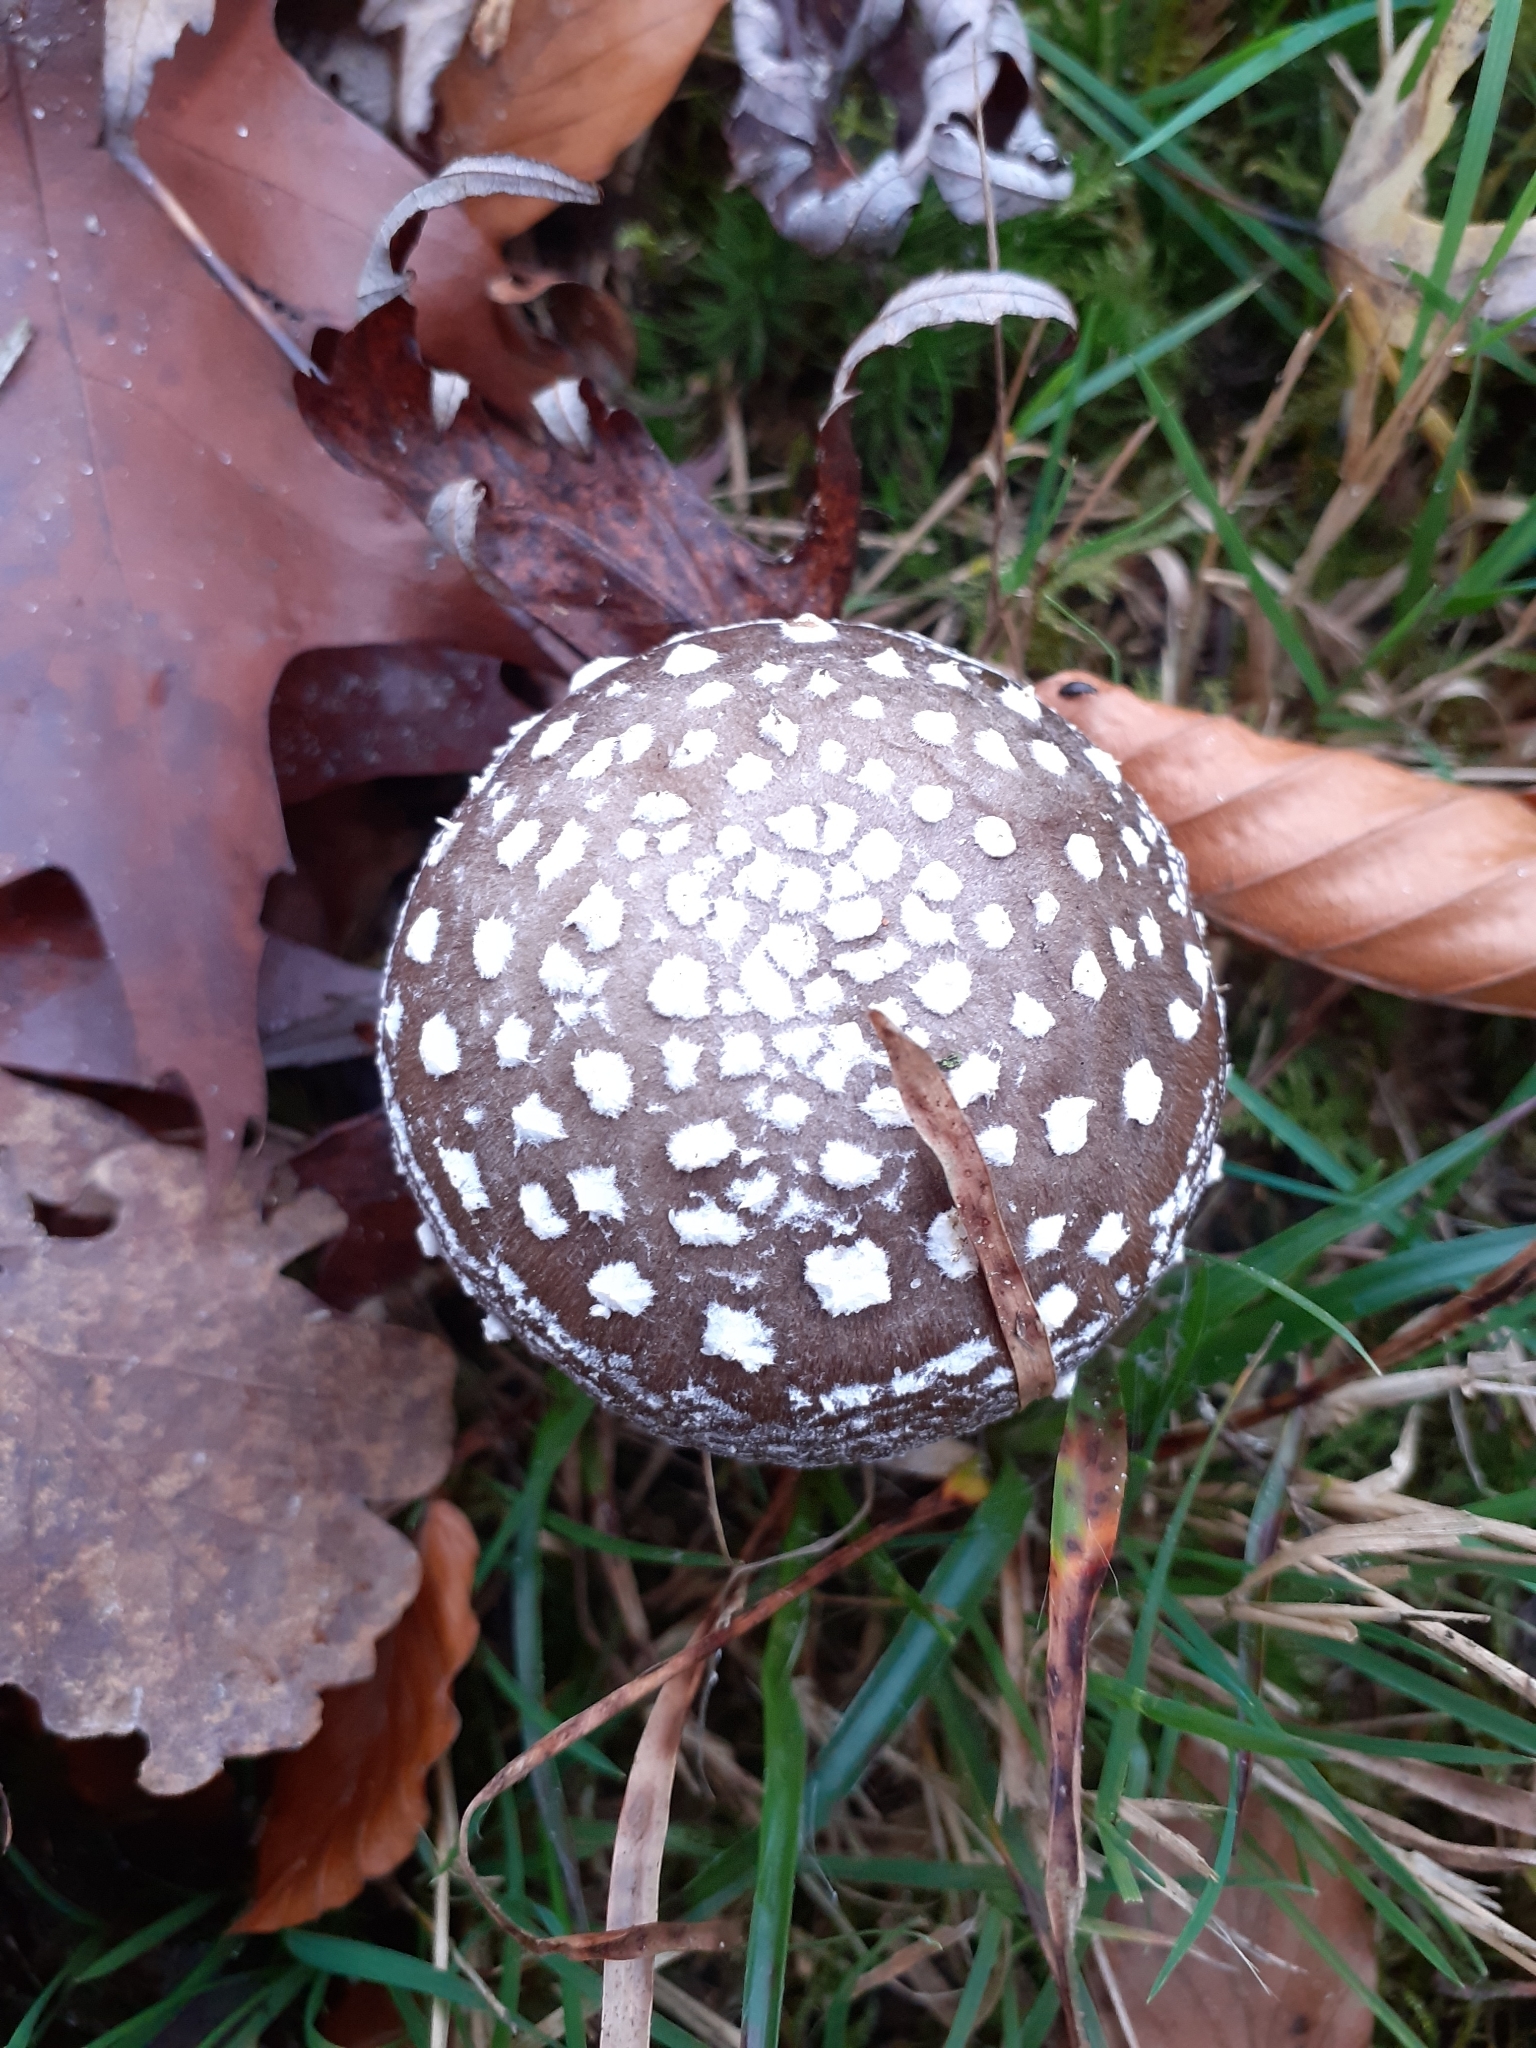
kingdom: Fungi
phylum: Basidiomycota
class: Agaricomycetes
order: Agaricales
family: Amanitaceae
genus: Amanita
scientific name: Amanita pantherina
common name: Panthercap
